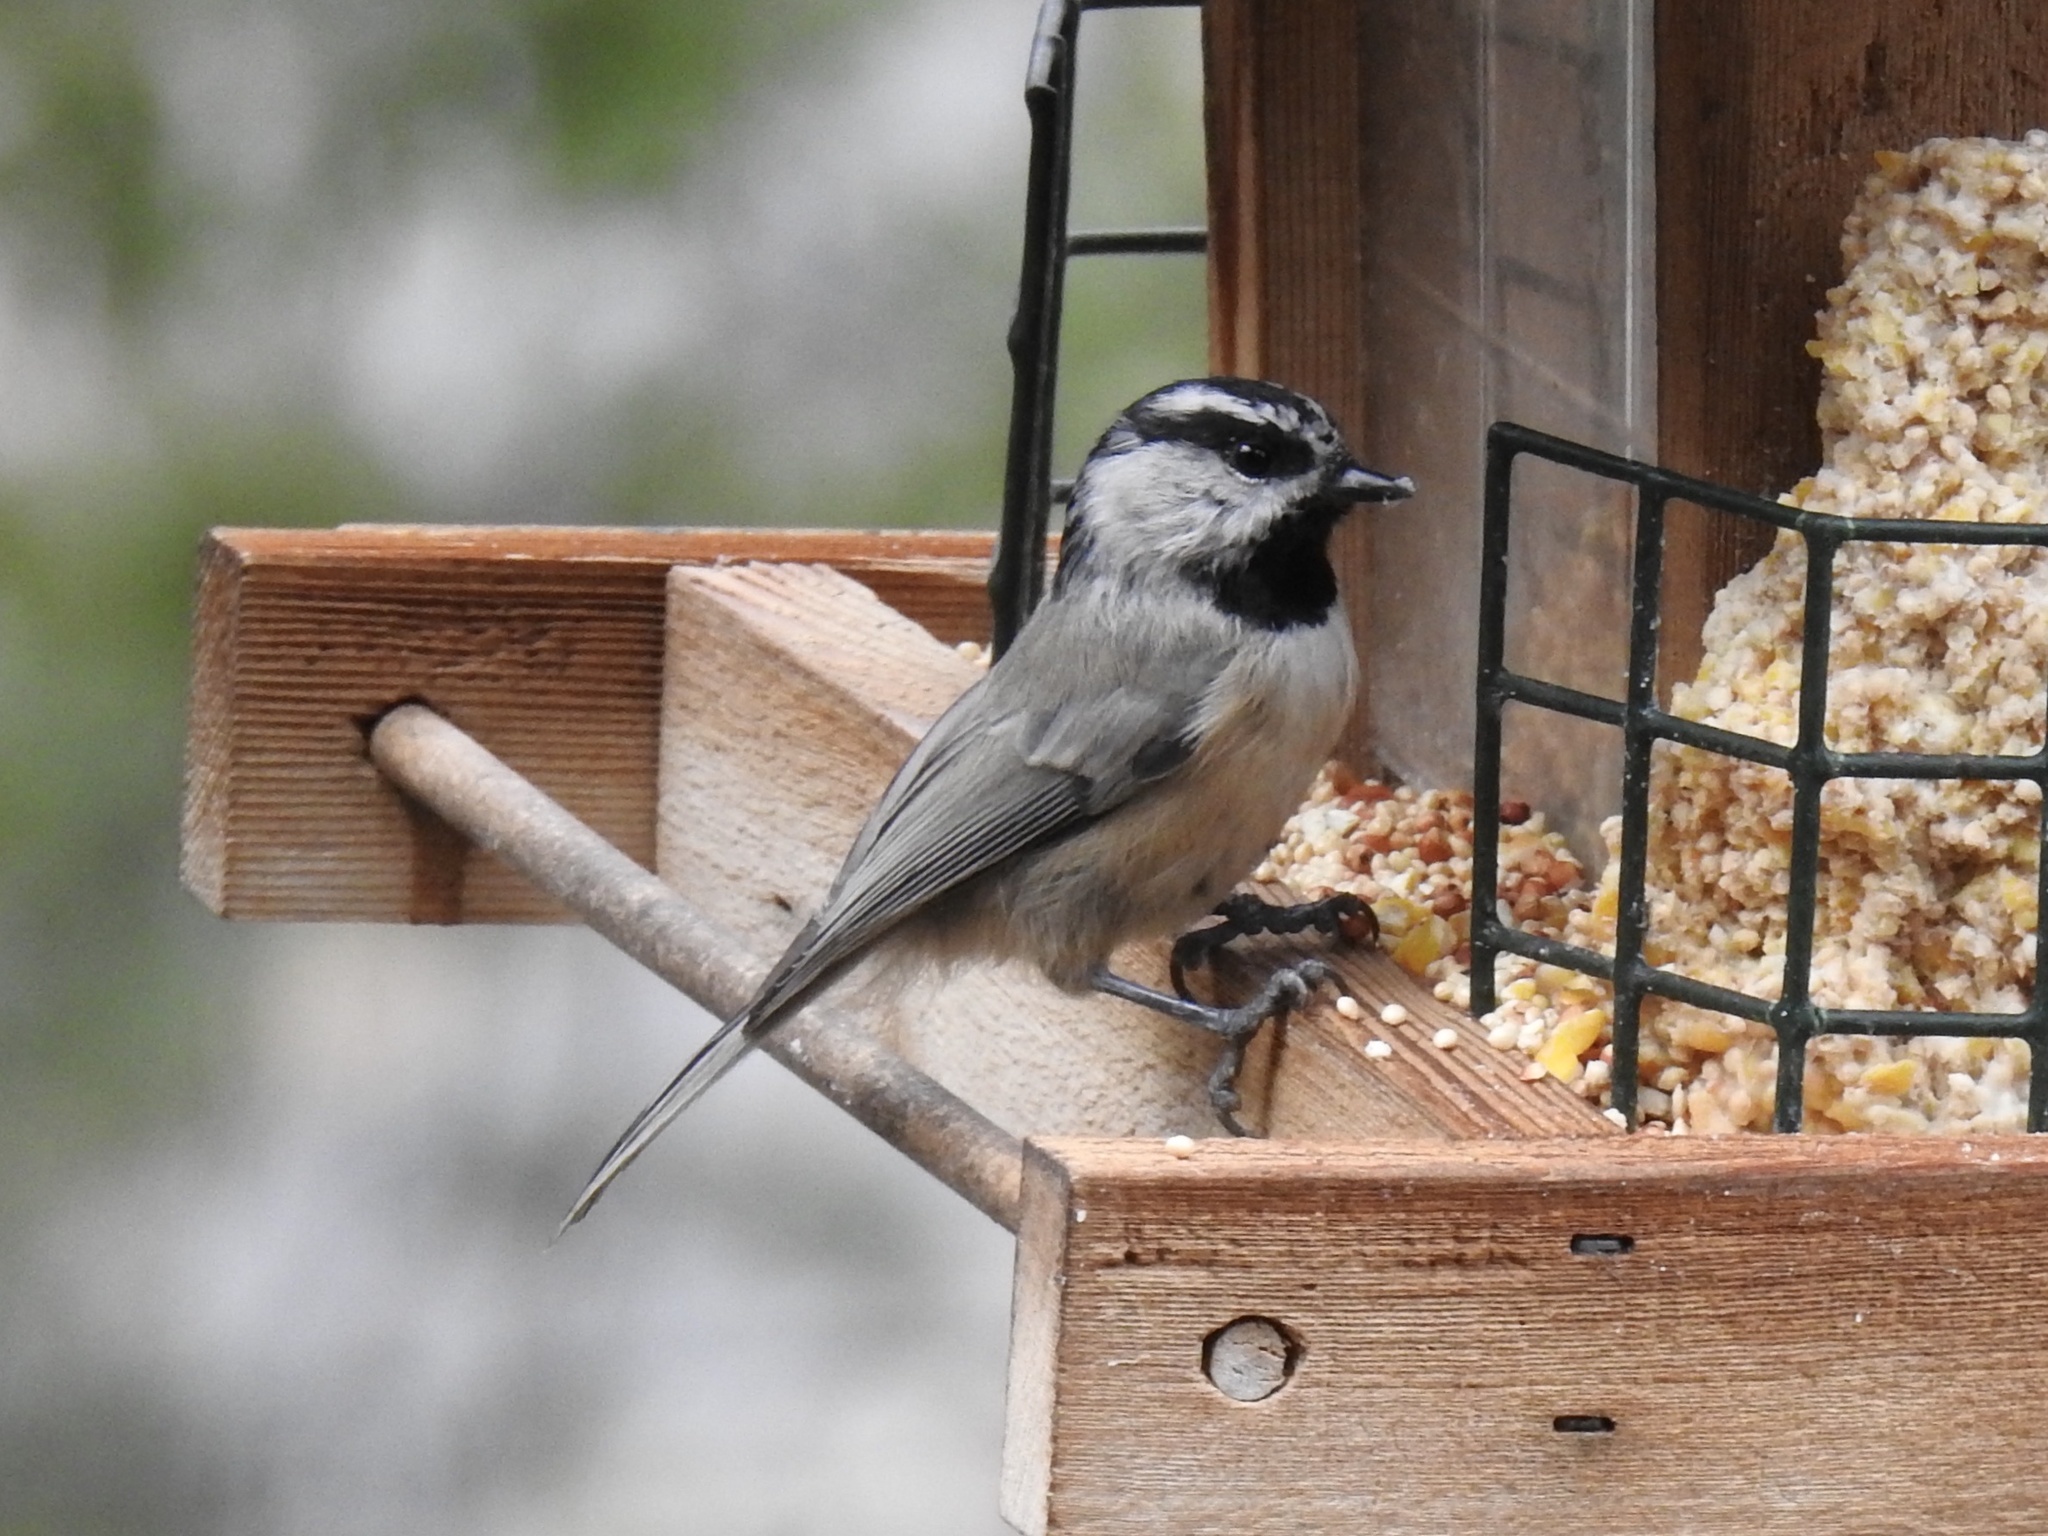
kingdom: Animalia
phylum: Chordata
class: Aves
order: Passeriformes
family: Paridae
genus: Poecile
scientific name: Poecile gambeli
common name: Mountain chickadee
